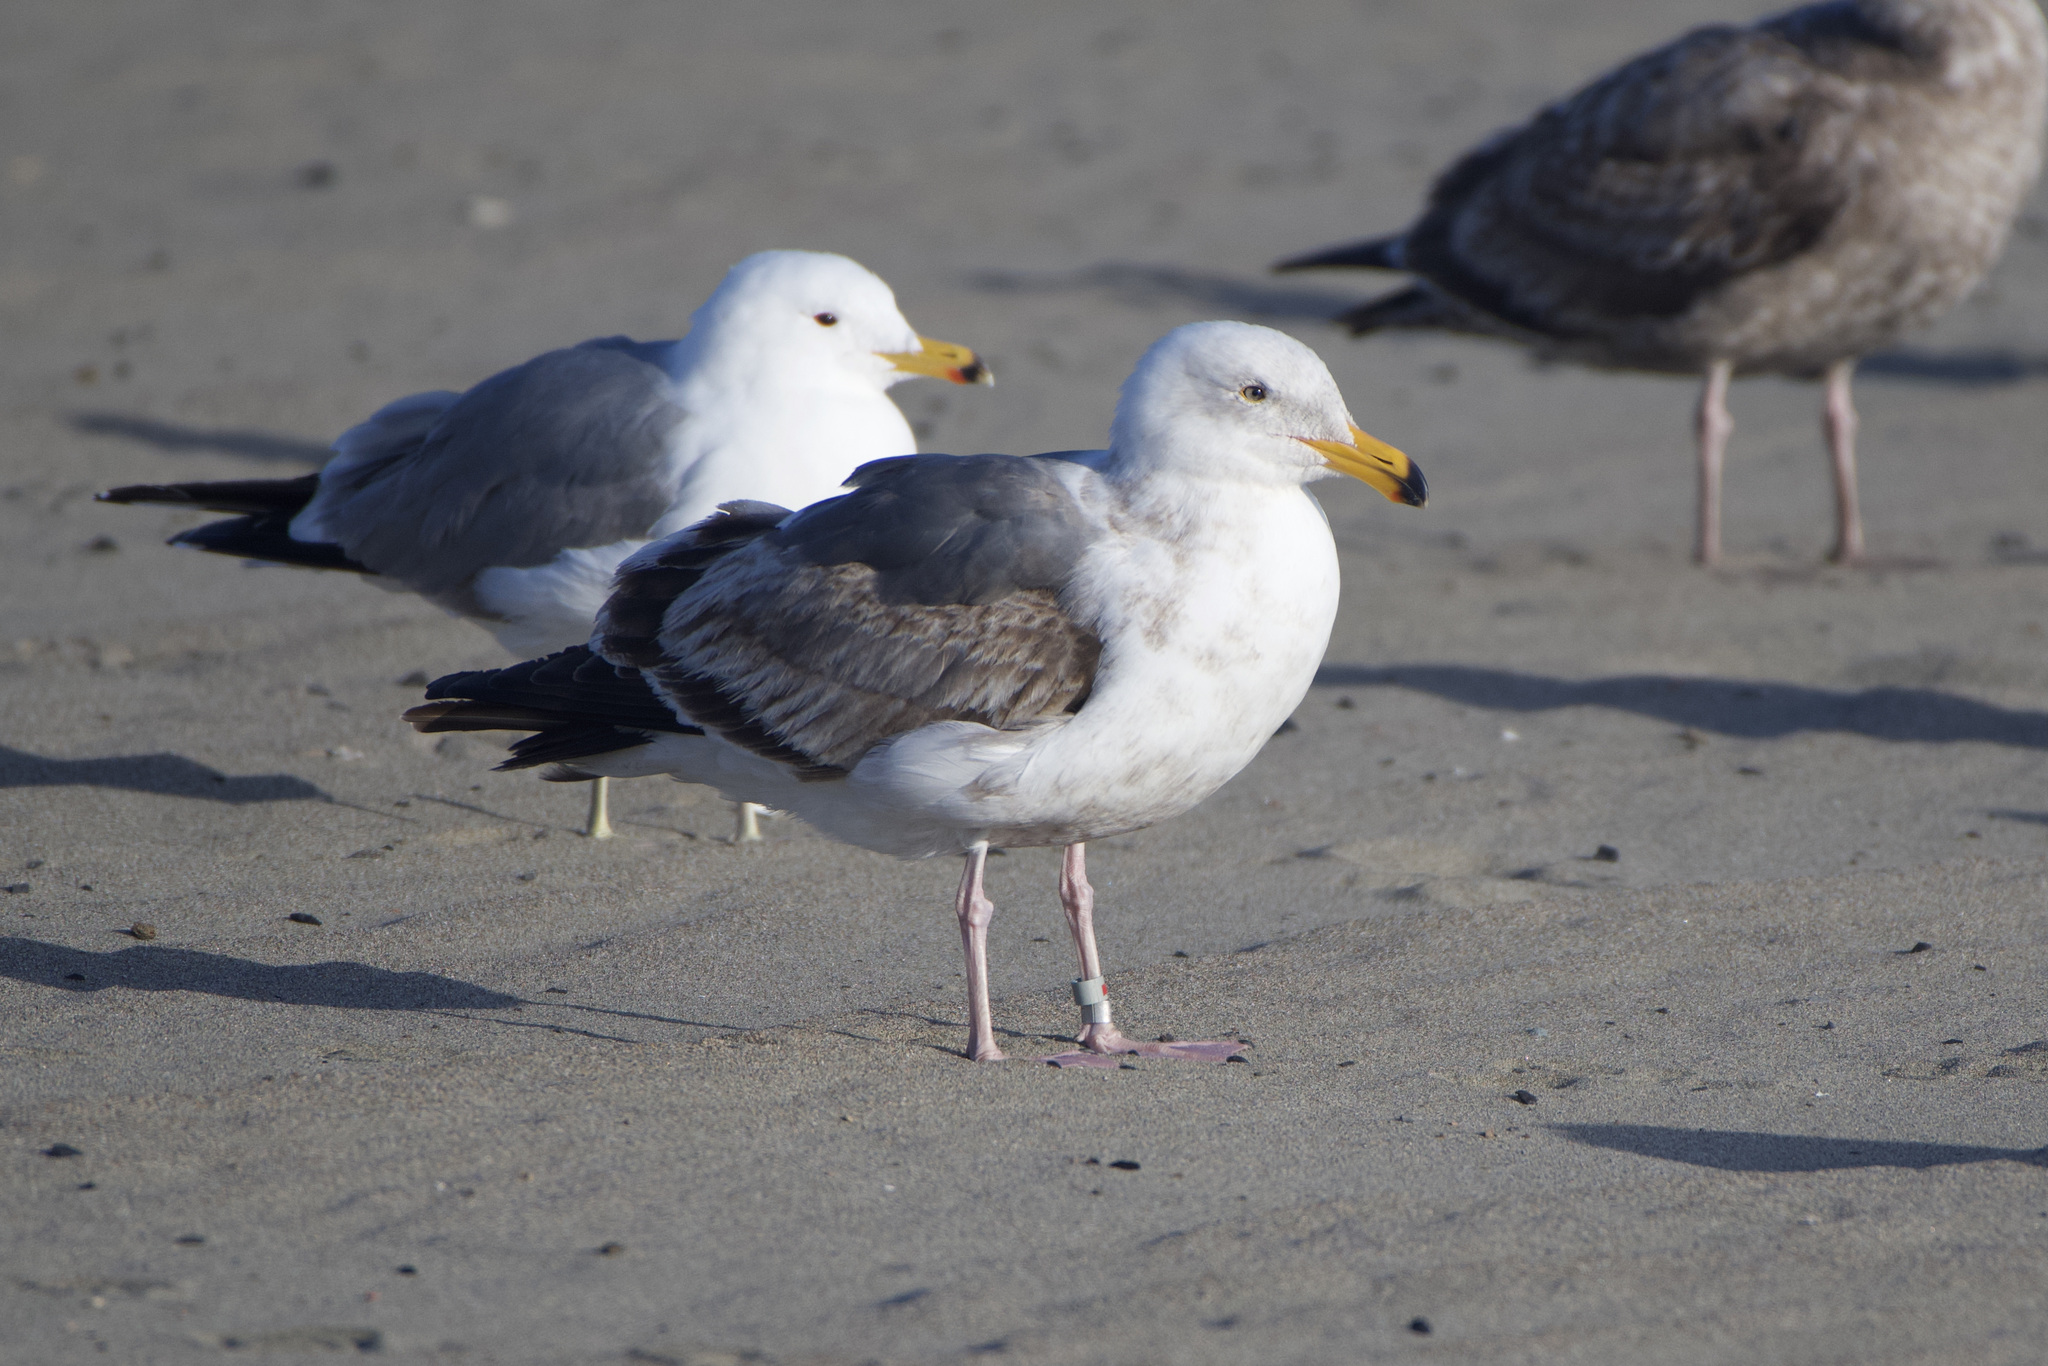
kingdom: Animalia
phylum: Chordata
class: Aves
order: Charadriiformes
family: Laridae
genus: Larus
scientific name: Larus occidentalis
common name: Western gull
